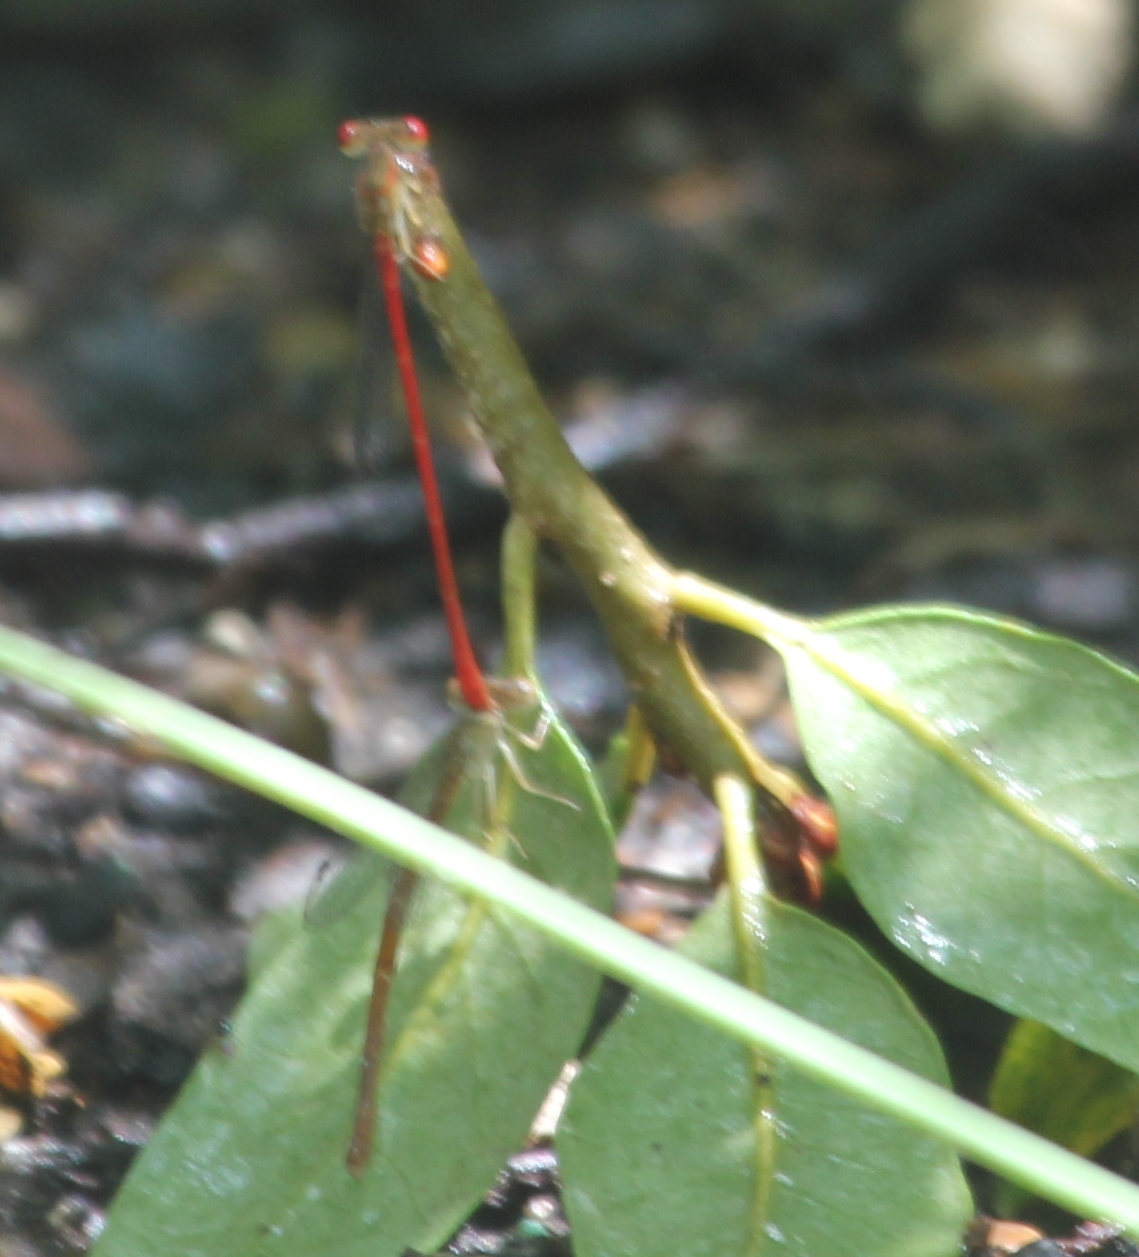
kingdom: Animalia
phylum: Arthropoda
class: Insecta
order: Odonata
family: Coenagrionidae
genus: Telebasis
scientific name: Telebasis salva
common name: Desert firetail
